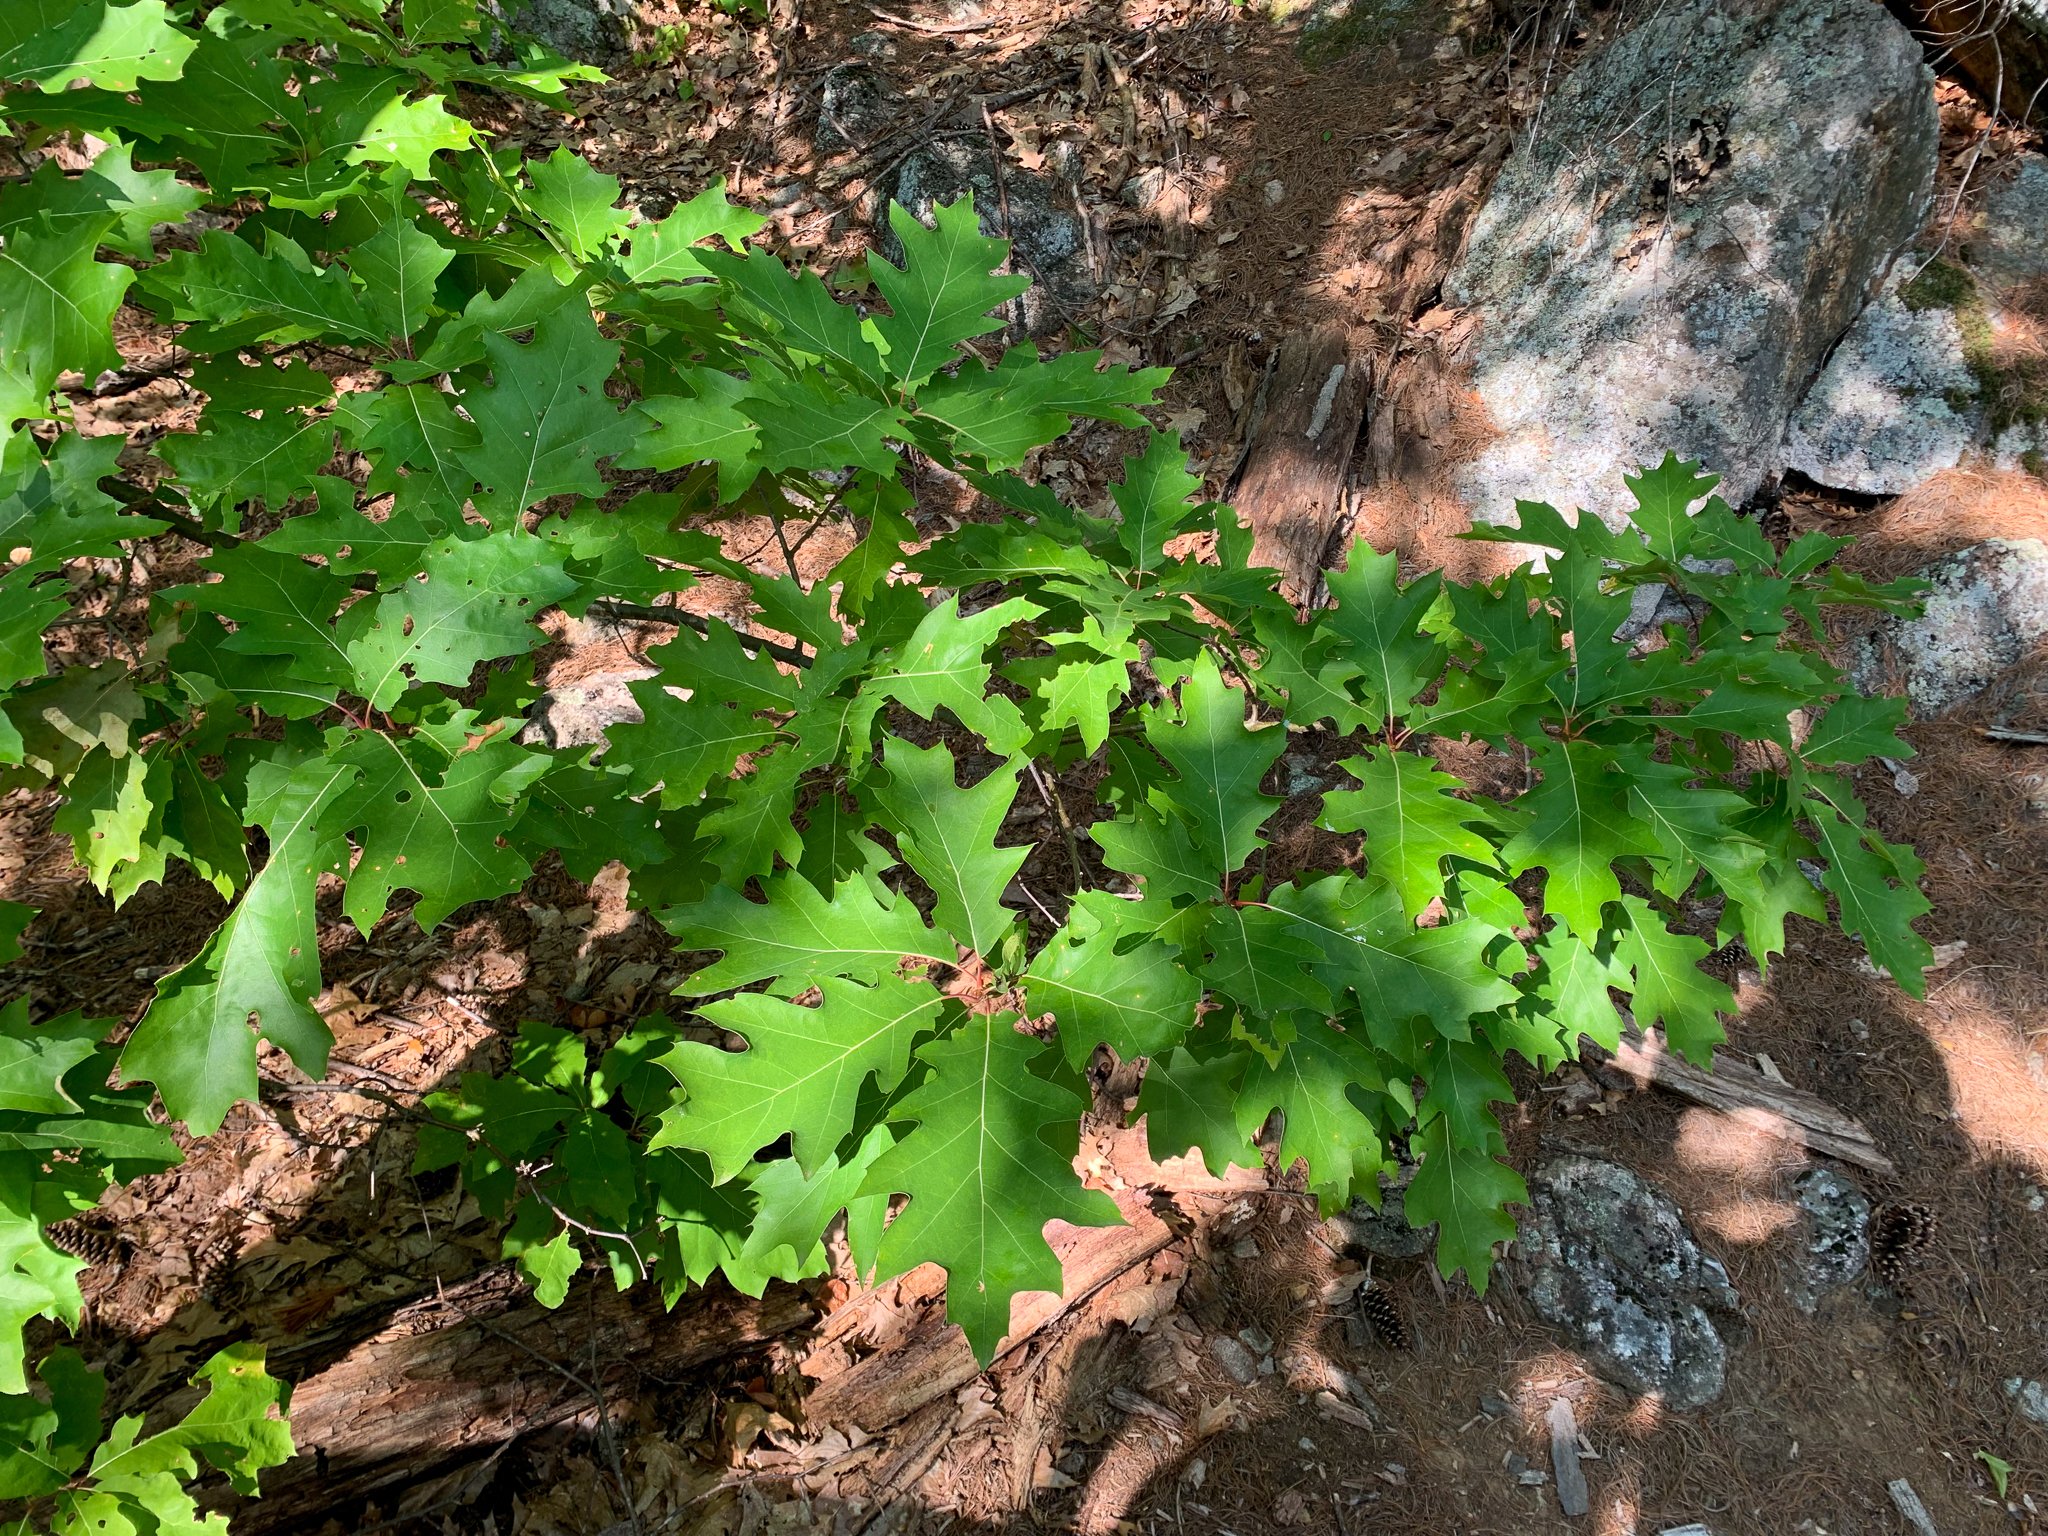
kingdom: Plantae
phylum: Tracheophyta
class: Magnoliopsida
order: Fagales
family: Fagaceae
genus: Quercus
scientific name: Quercus rubra
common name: Red oak
